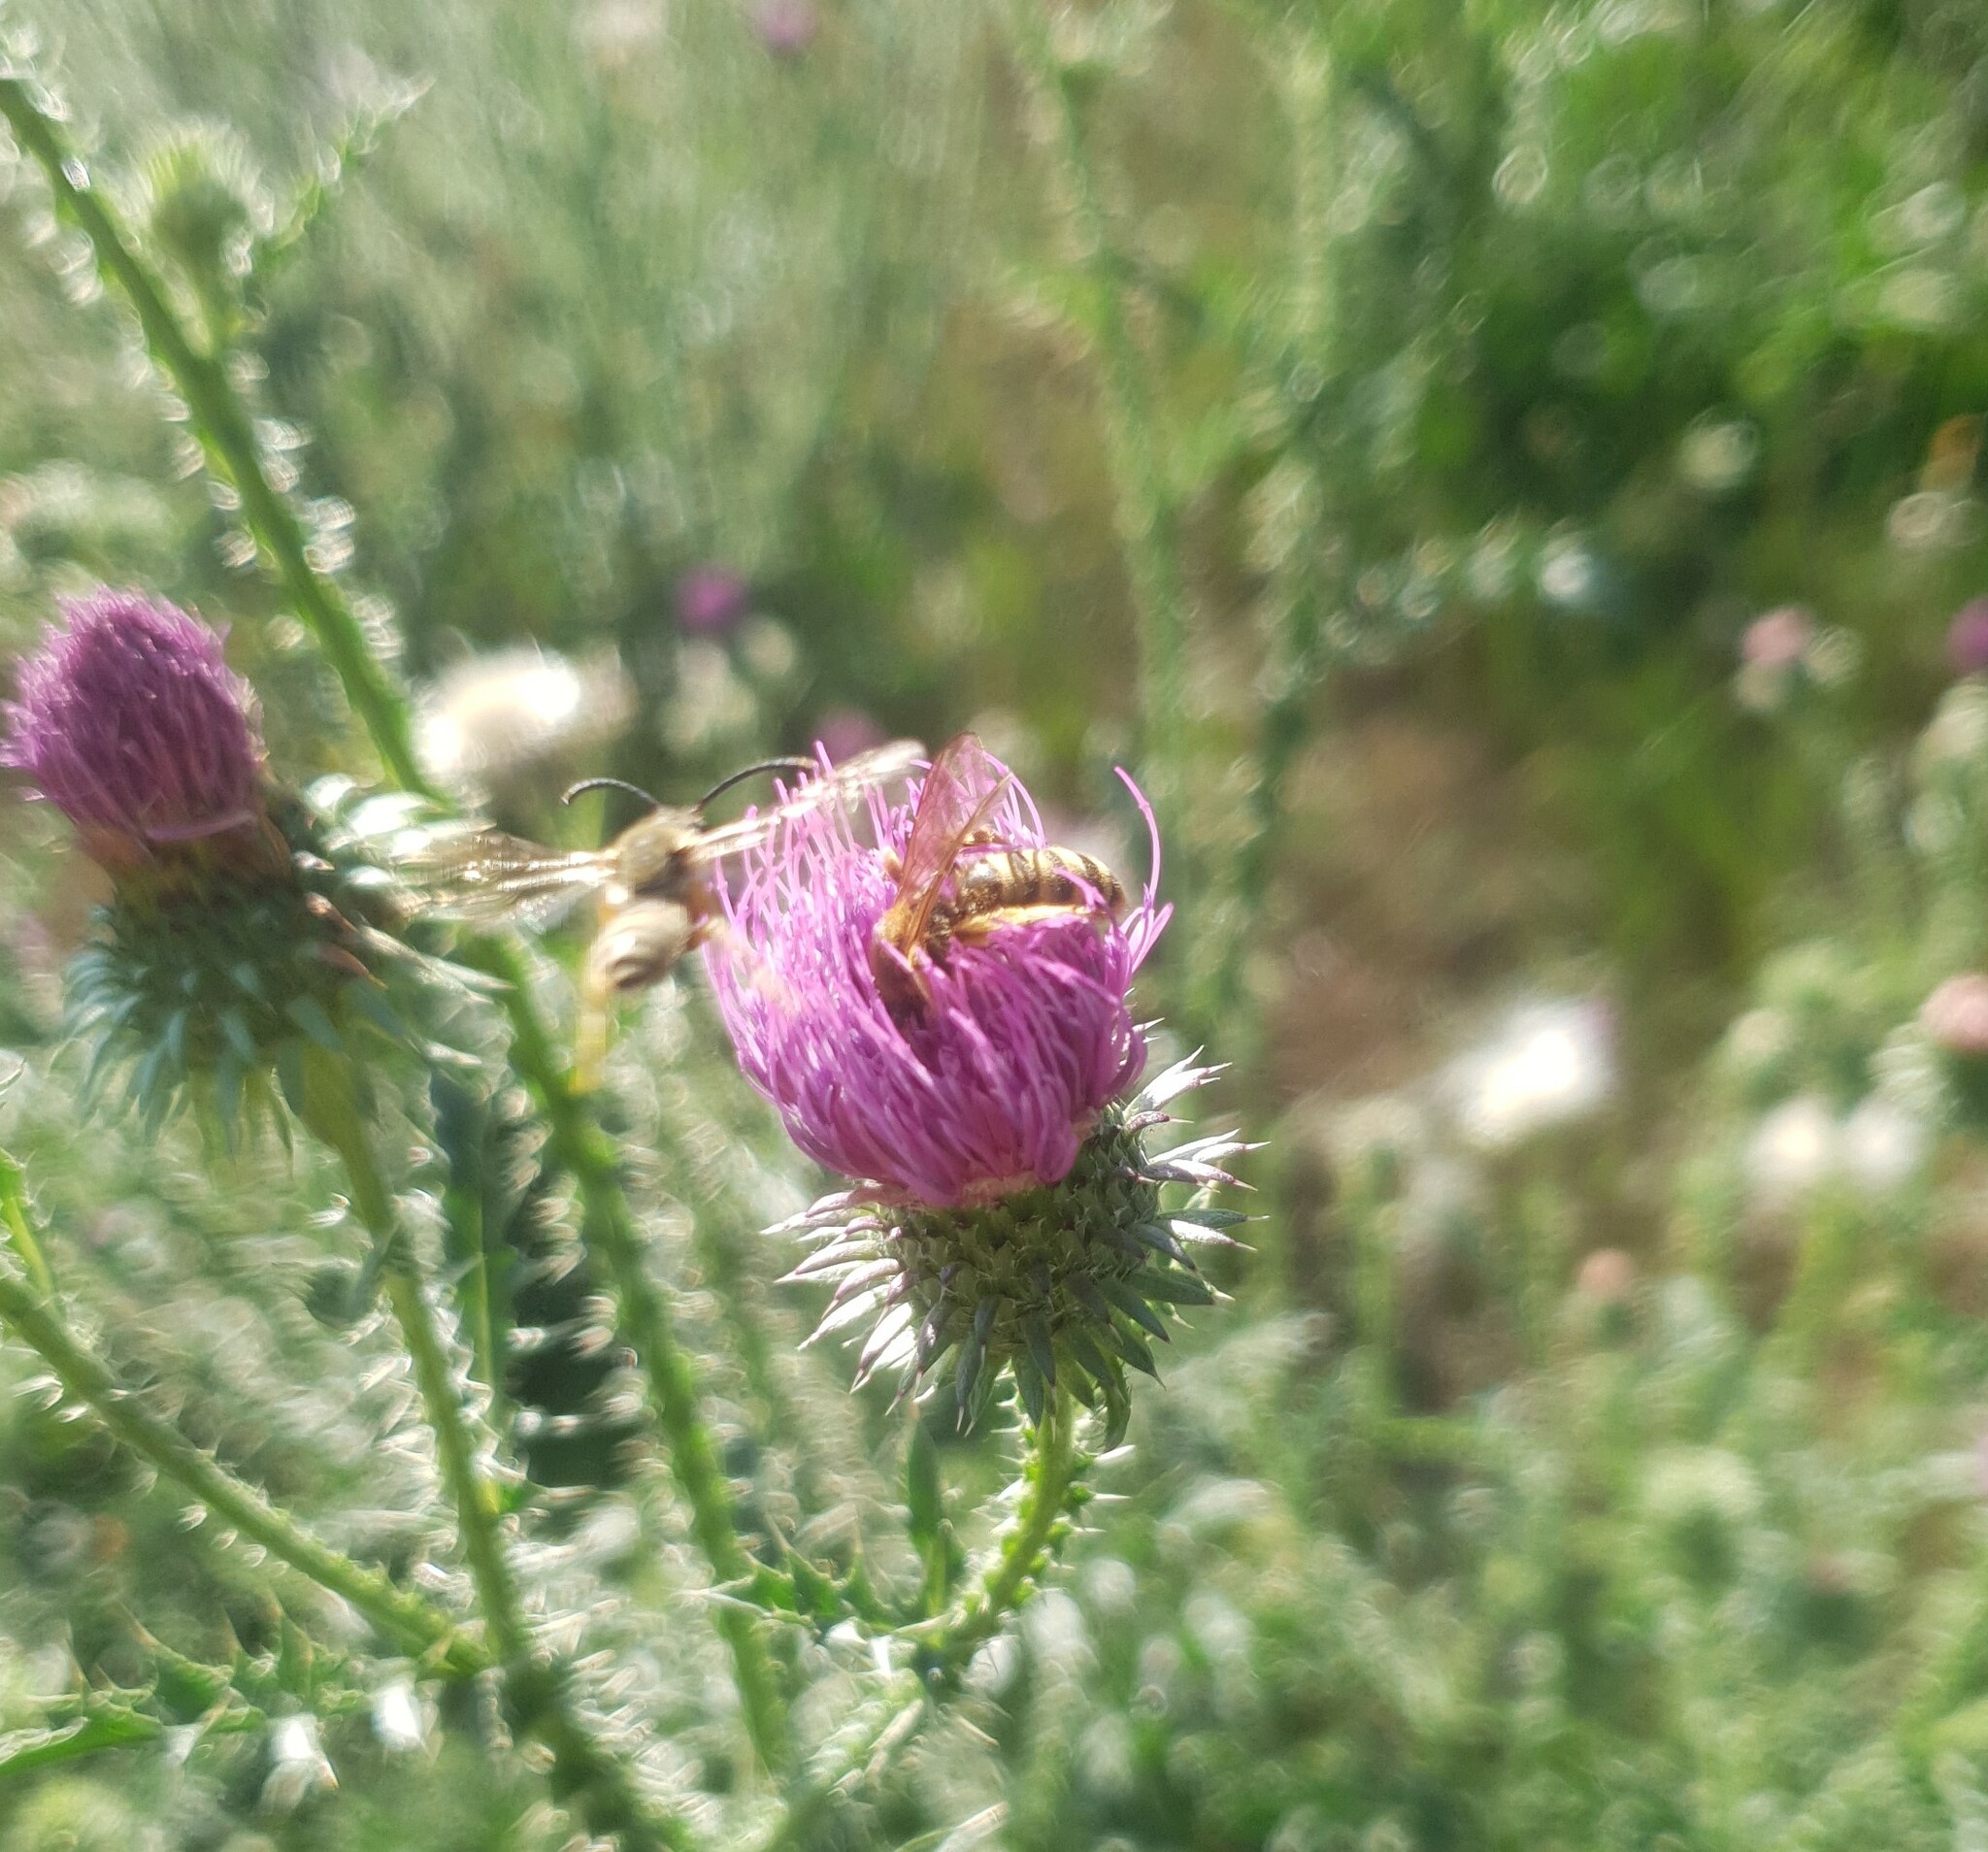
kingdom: Animalia
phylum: Arthropoda
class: Insecta
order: Hymenoptera
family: Halictidae
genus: Halictus
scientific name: Halictus scabiosae
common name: Great banded furrow bee
